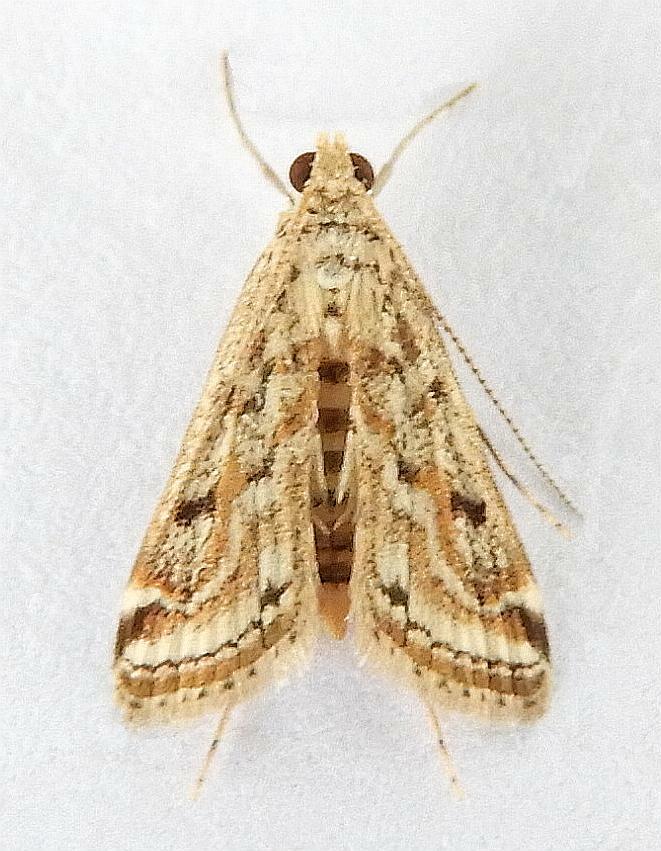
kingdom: Animalia
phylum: Arthropoda
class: Insecta
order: Lepidoptera
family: Crambidae
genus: Parapoynx
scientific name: Parapoynx allionealis
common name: Bladderwort casemaker
